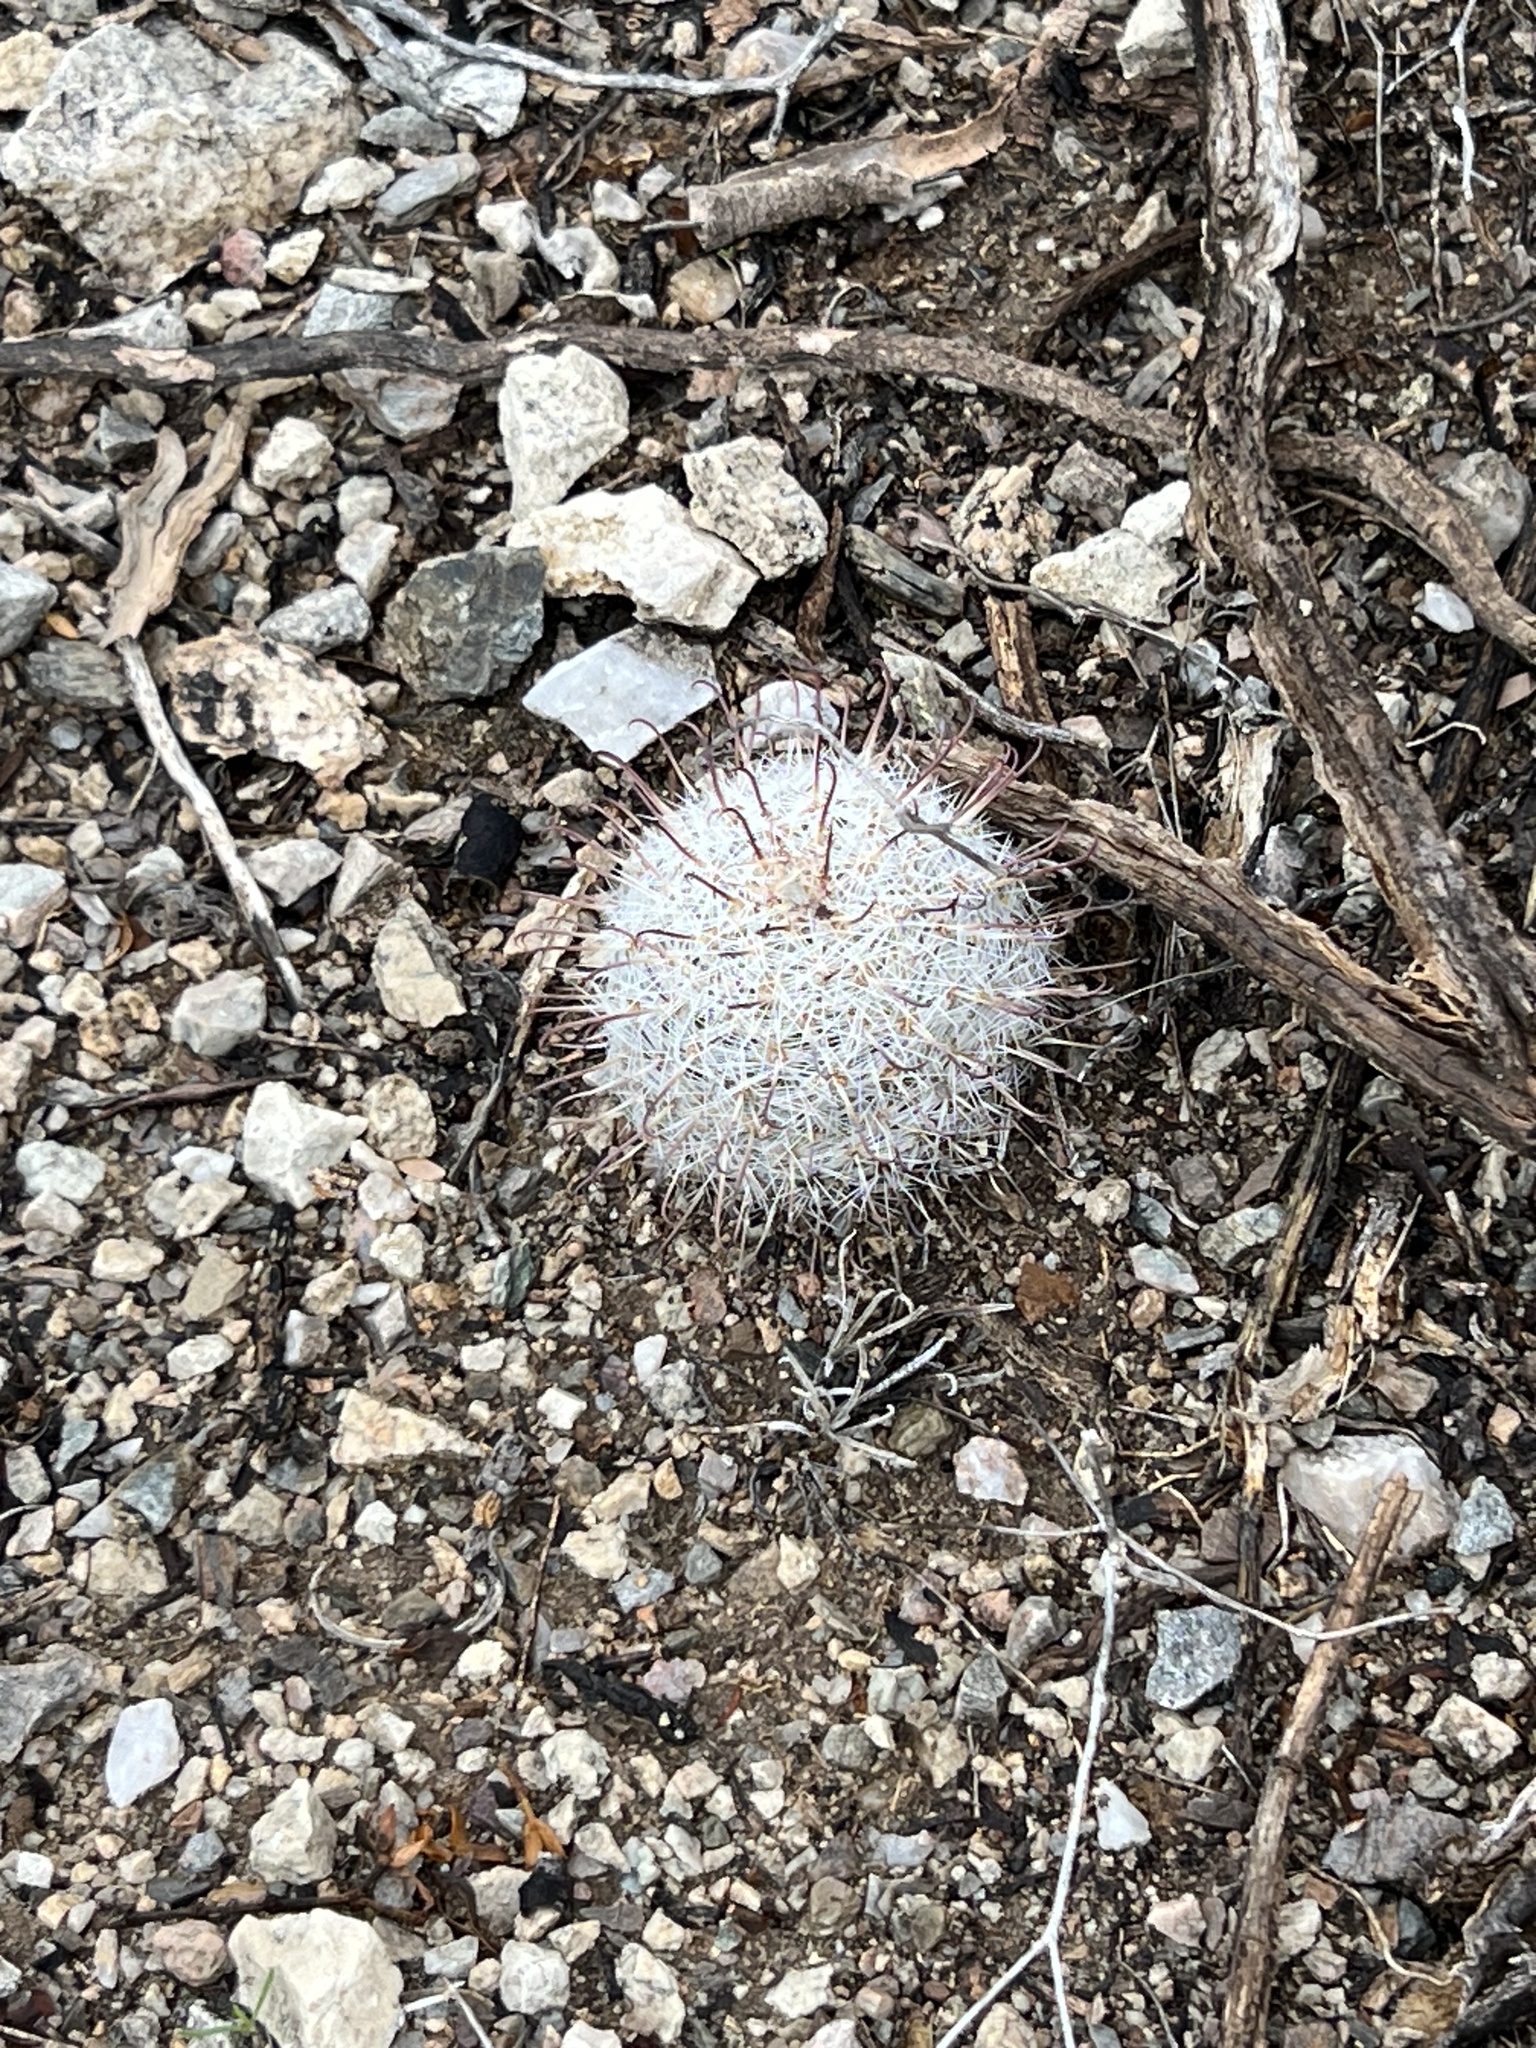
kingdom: Plantae
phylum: Tracheophyta
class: Magnoliopsida
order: Caryophyllales
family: Cactaceae
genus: Cochemiea
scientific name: Cochemiea grahamii
